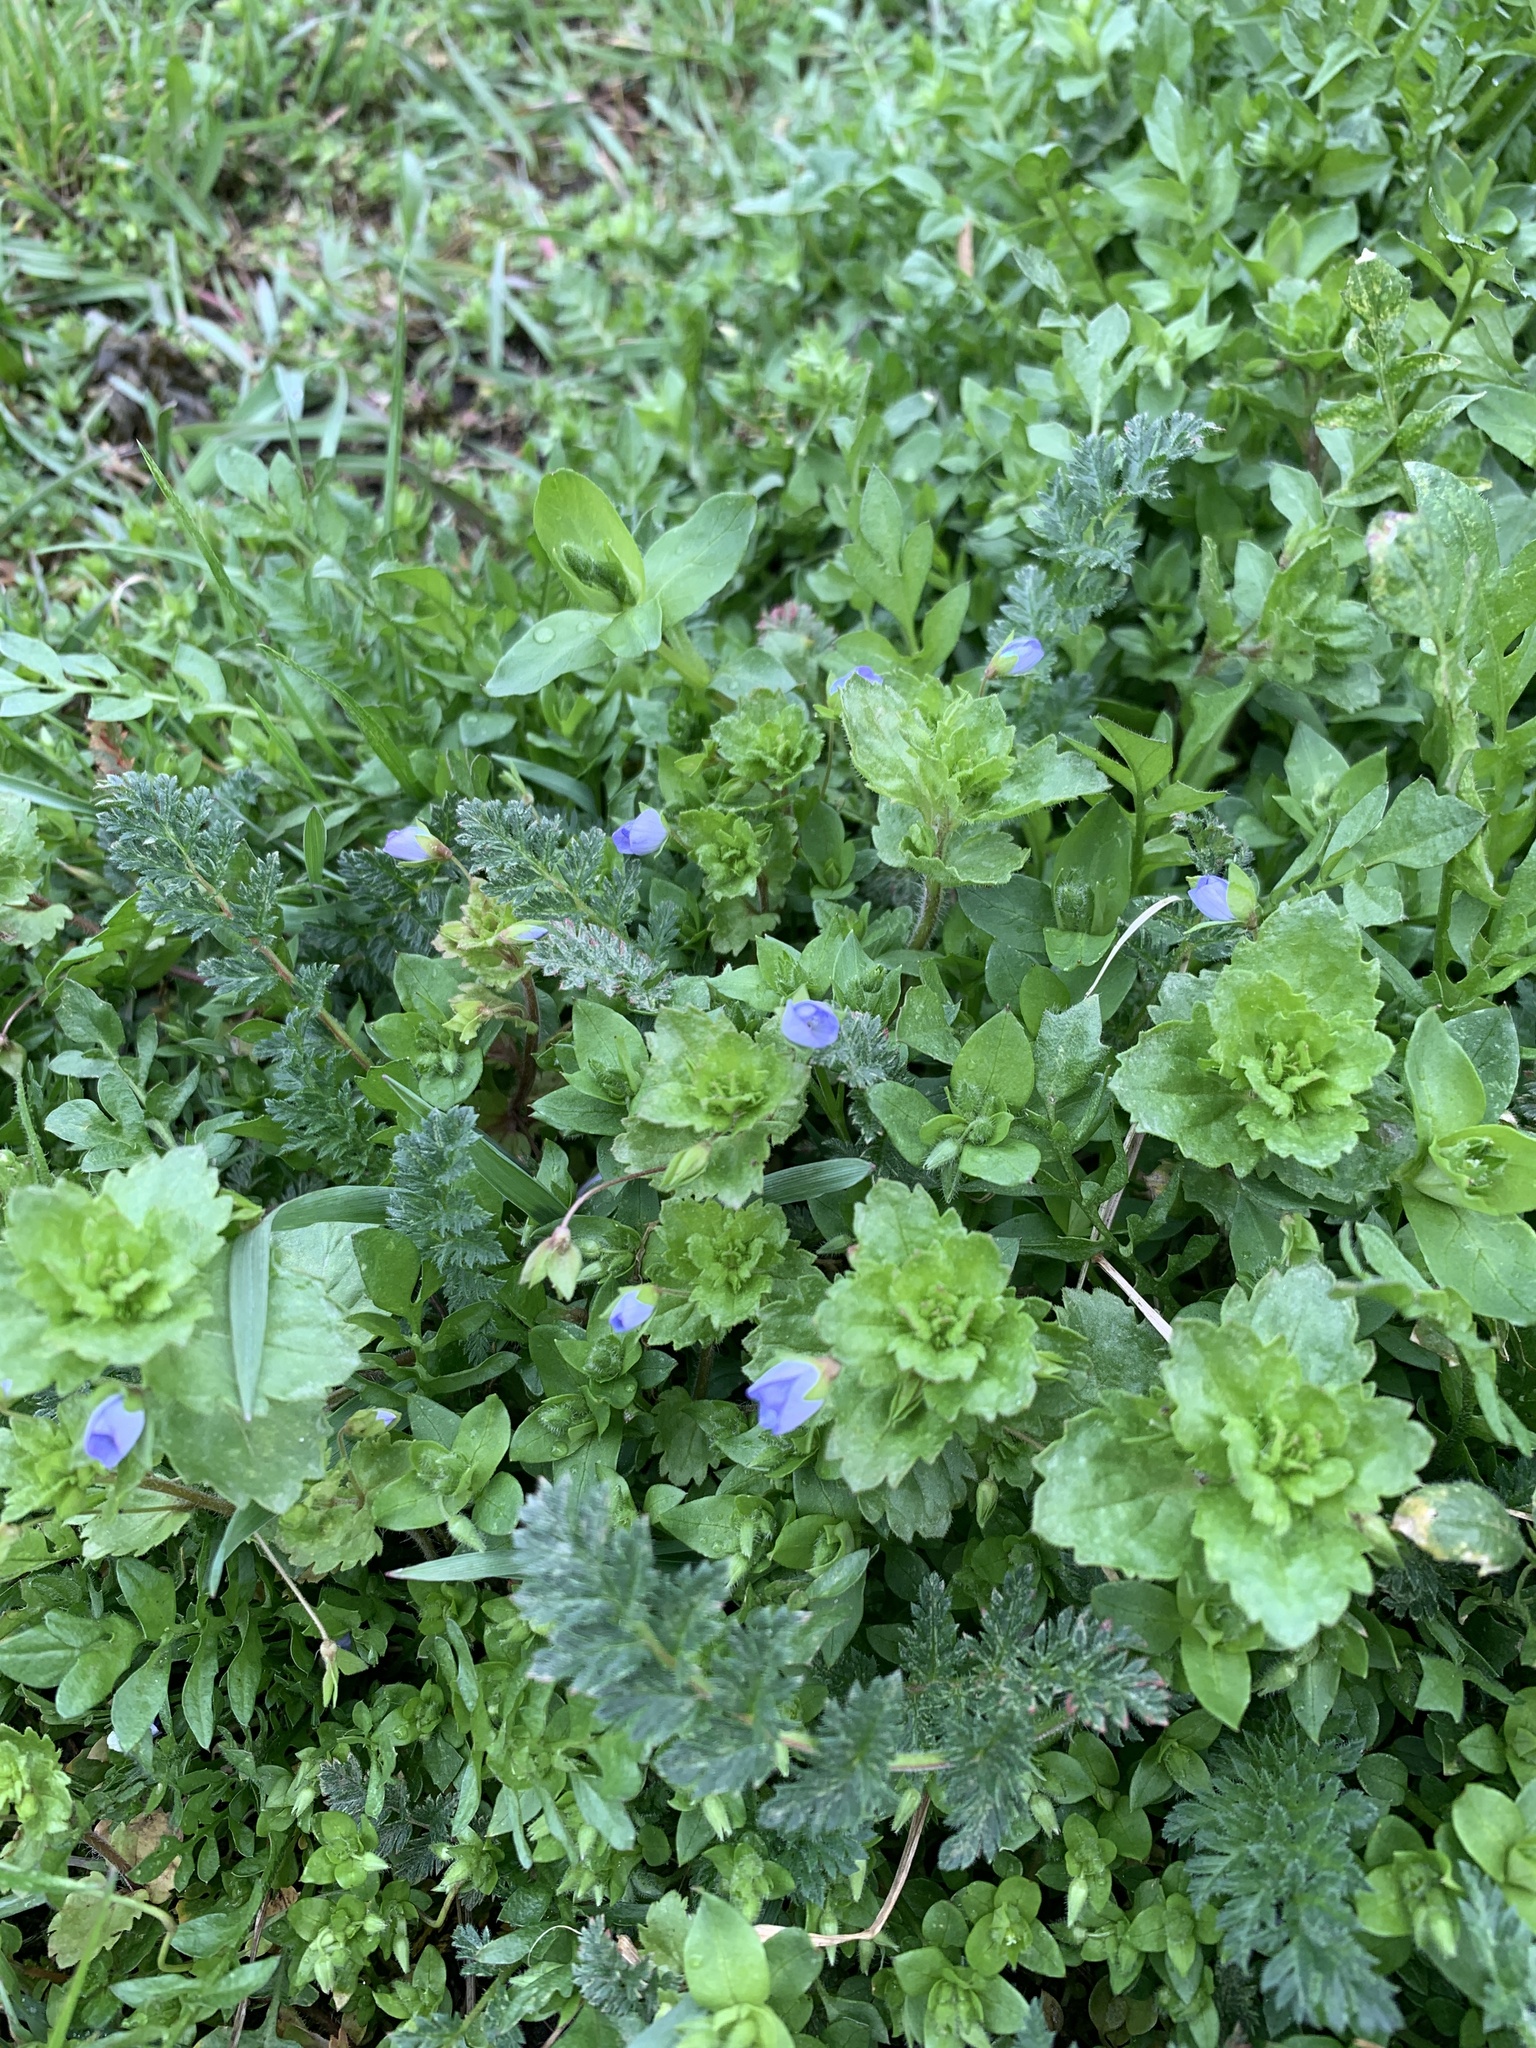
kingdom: Plantae
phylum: Tracheophyta
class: Magnoliopsida
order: Lamiales
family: Plantaginaceae
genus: Veronica
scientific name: Veronica persica
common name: Common field-speedwell
